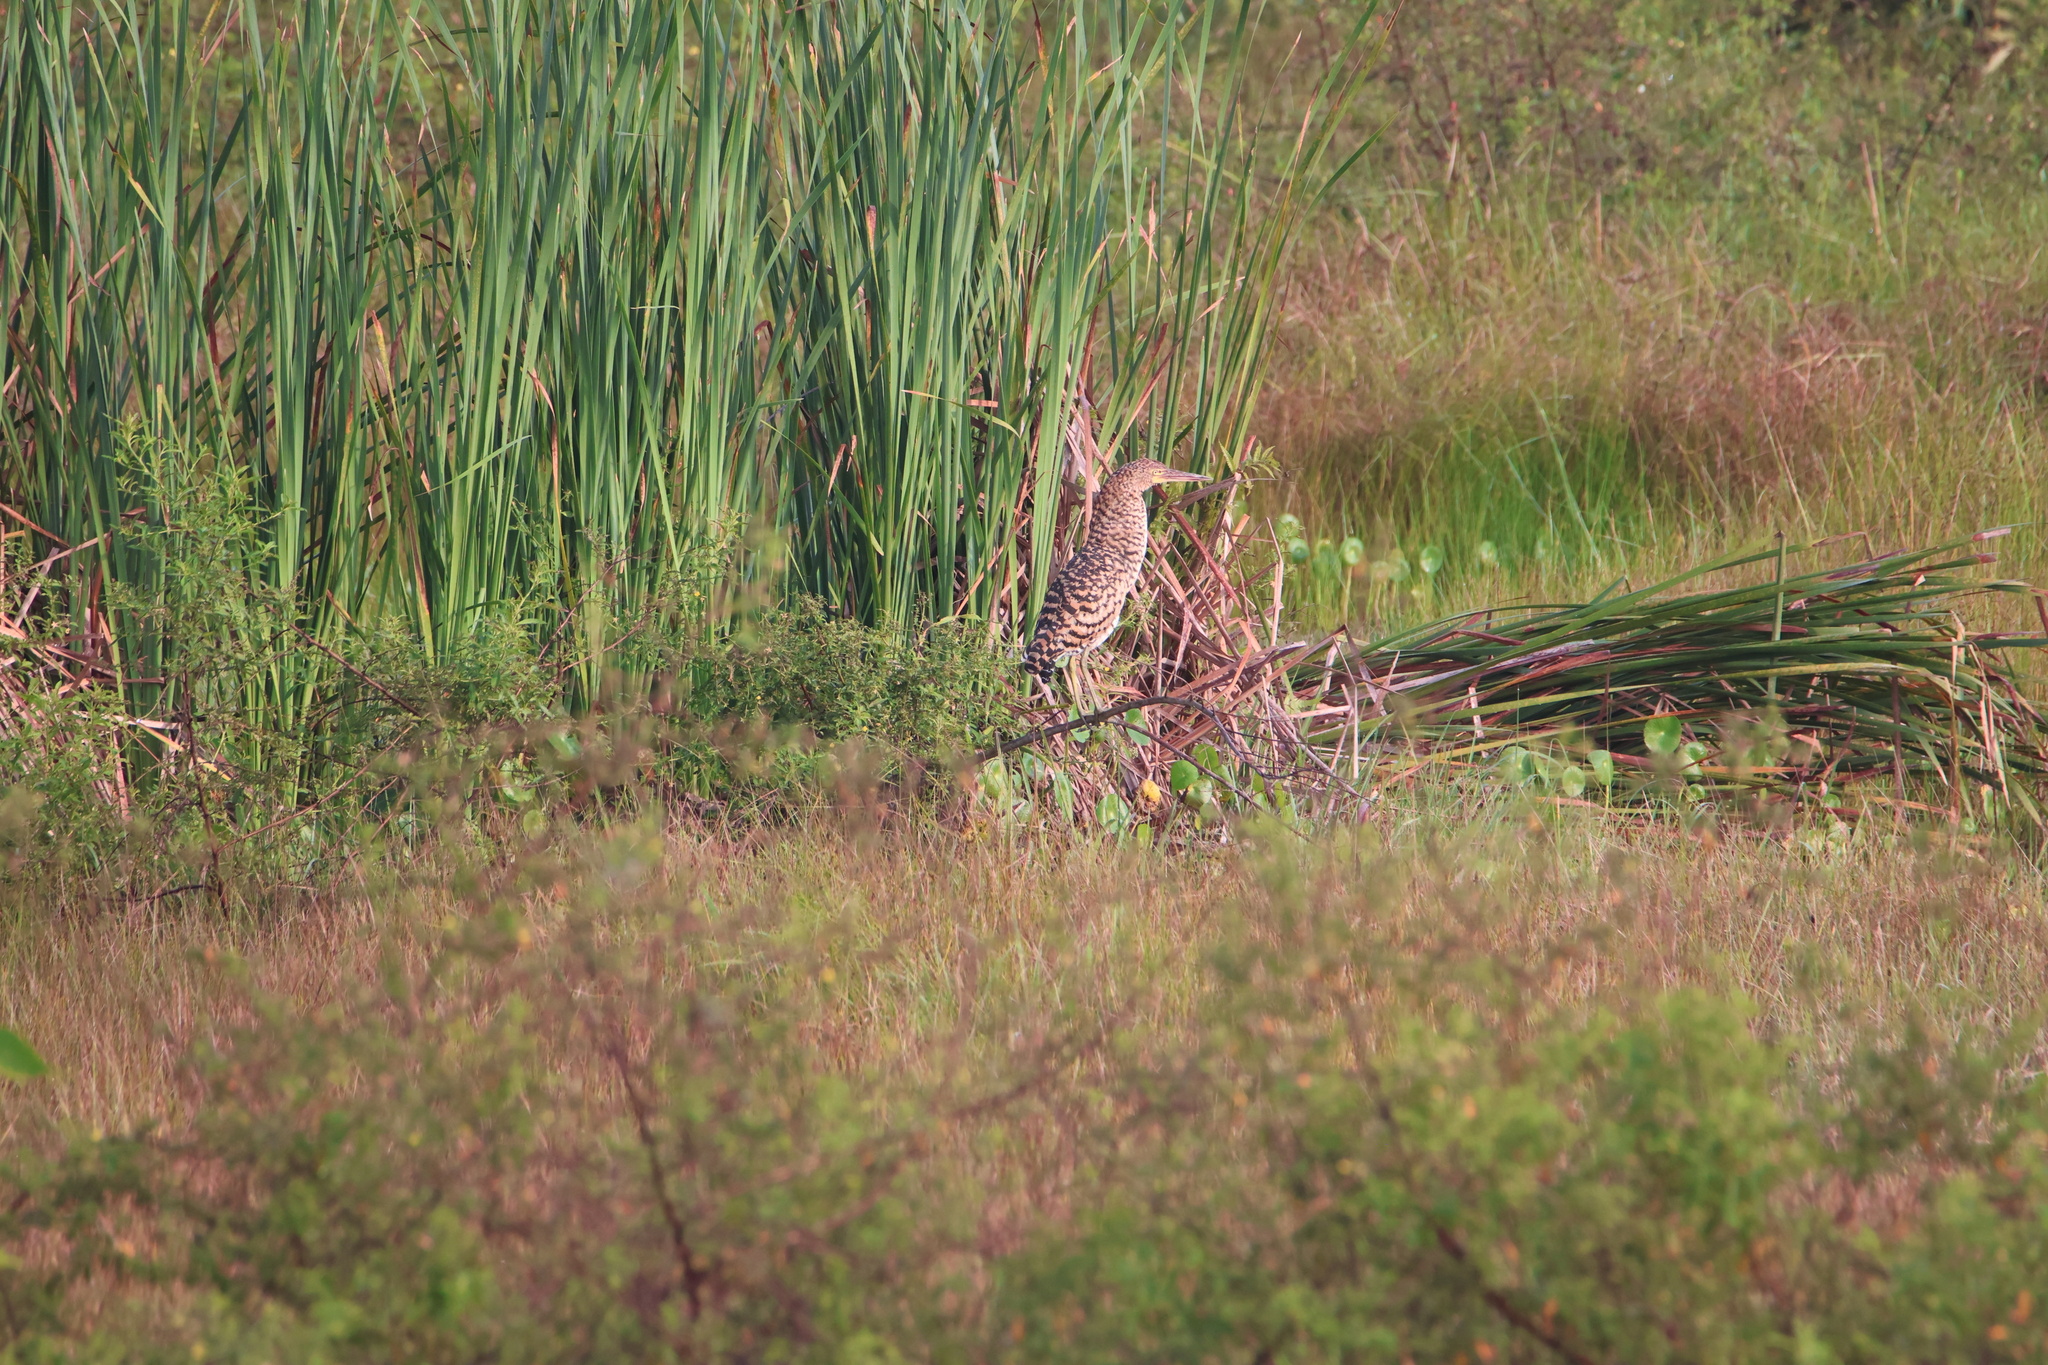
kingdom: Animalia
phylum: Chordata
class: Aves
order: Pelecaniformes
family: Ardeidae
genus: Tigrisoma
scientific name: Tigrisoma lineatum
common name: Rufescent tiger-heron
